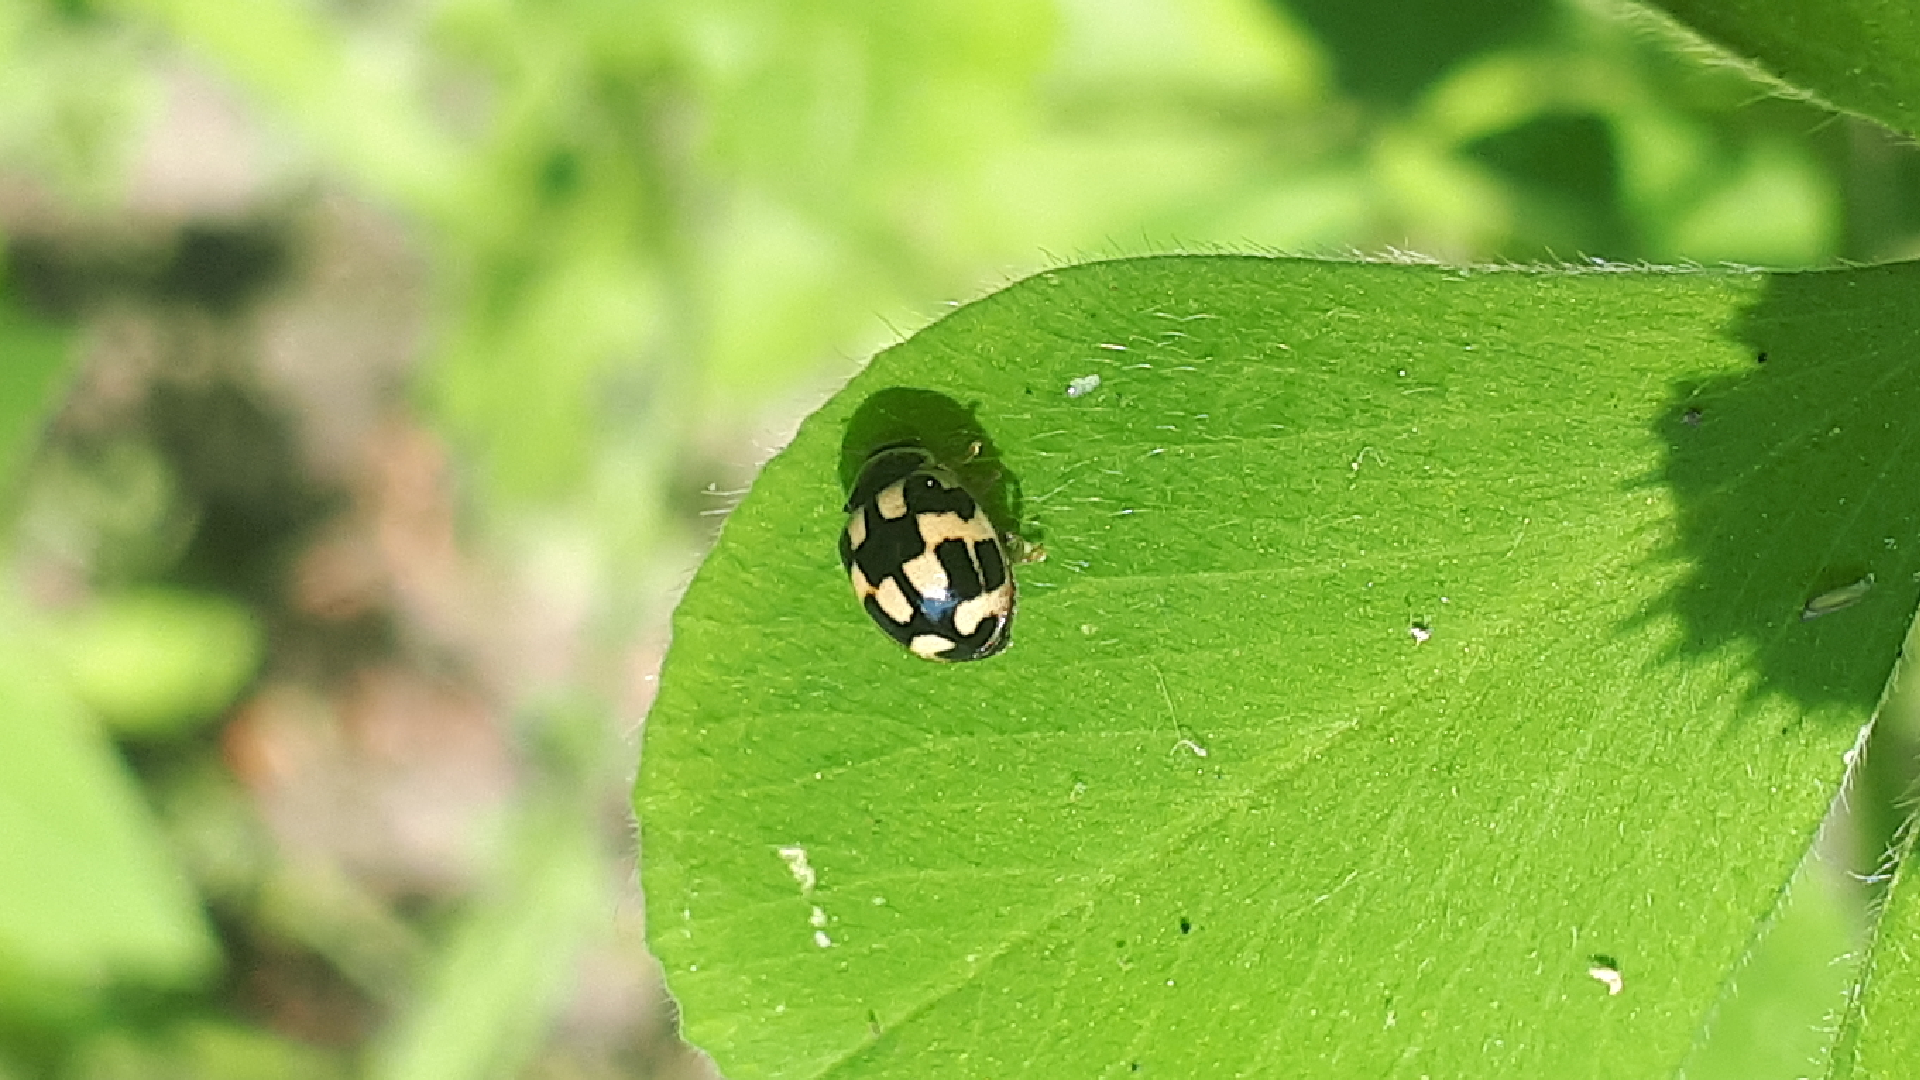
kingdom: Animalia
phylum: Arthropoda
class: Insecta
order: Coleoptera
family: Coccinellidae
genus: Propylaea
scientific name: Propylaea quatuordecimpunctata
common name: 14-spotted ladybird beetle
